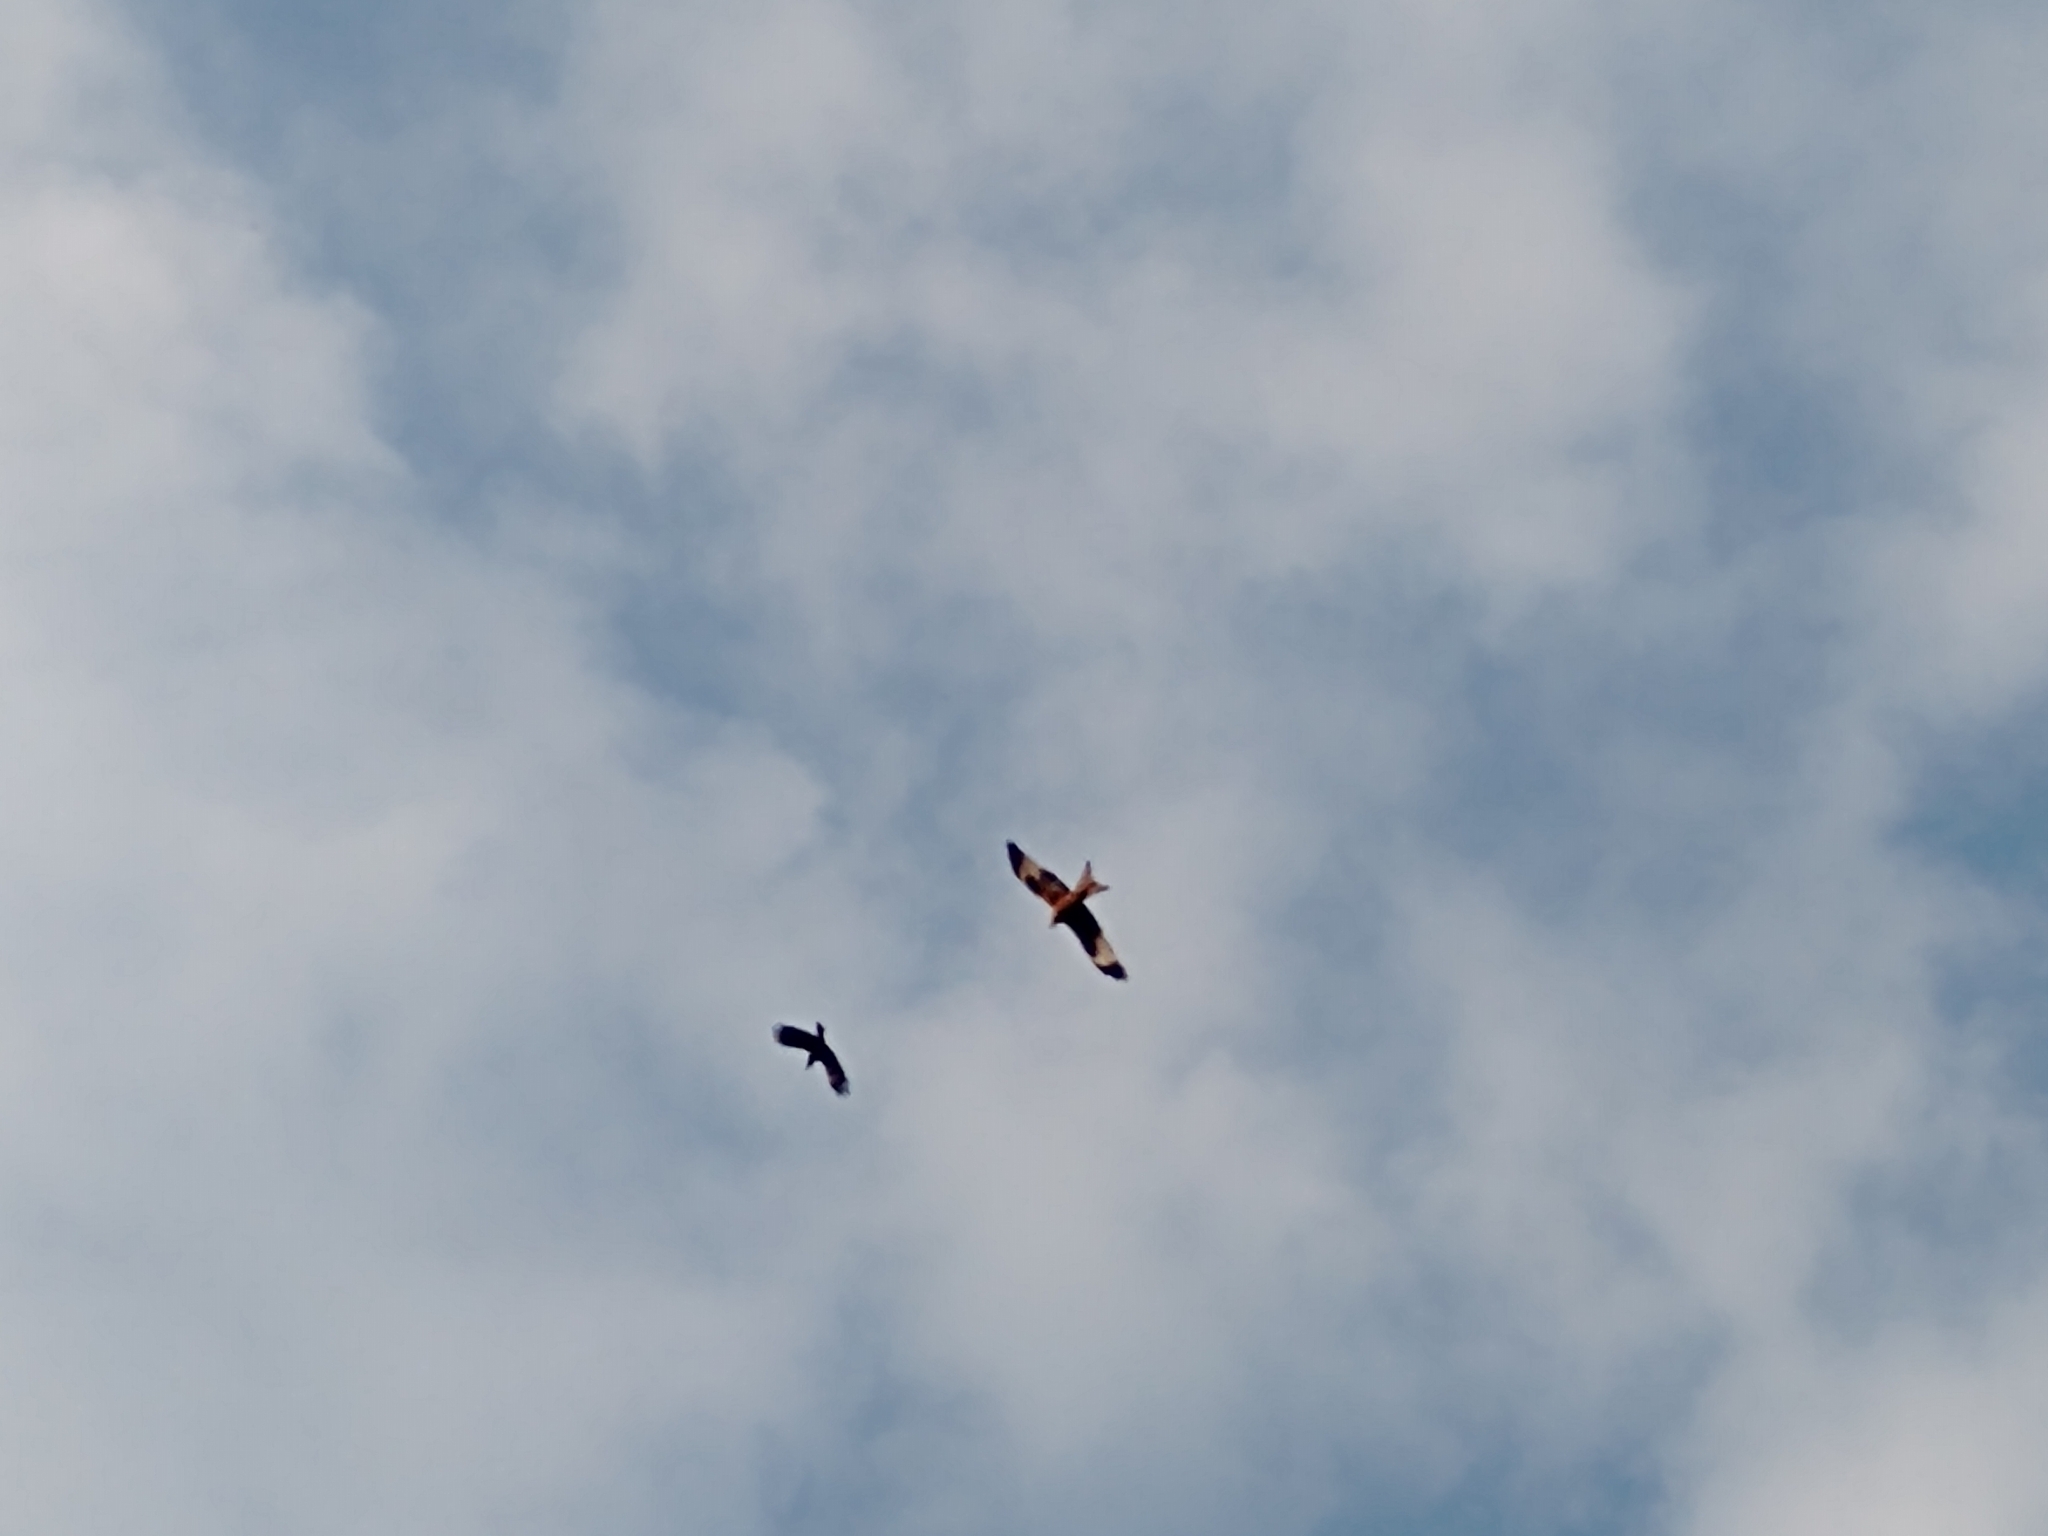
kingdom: Animalia
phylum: Chordata
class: Aves
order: Accipitriformes
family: Accipitridae
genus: Milvus
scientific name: Milvus milvus
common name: Red kite
